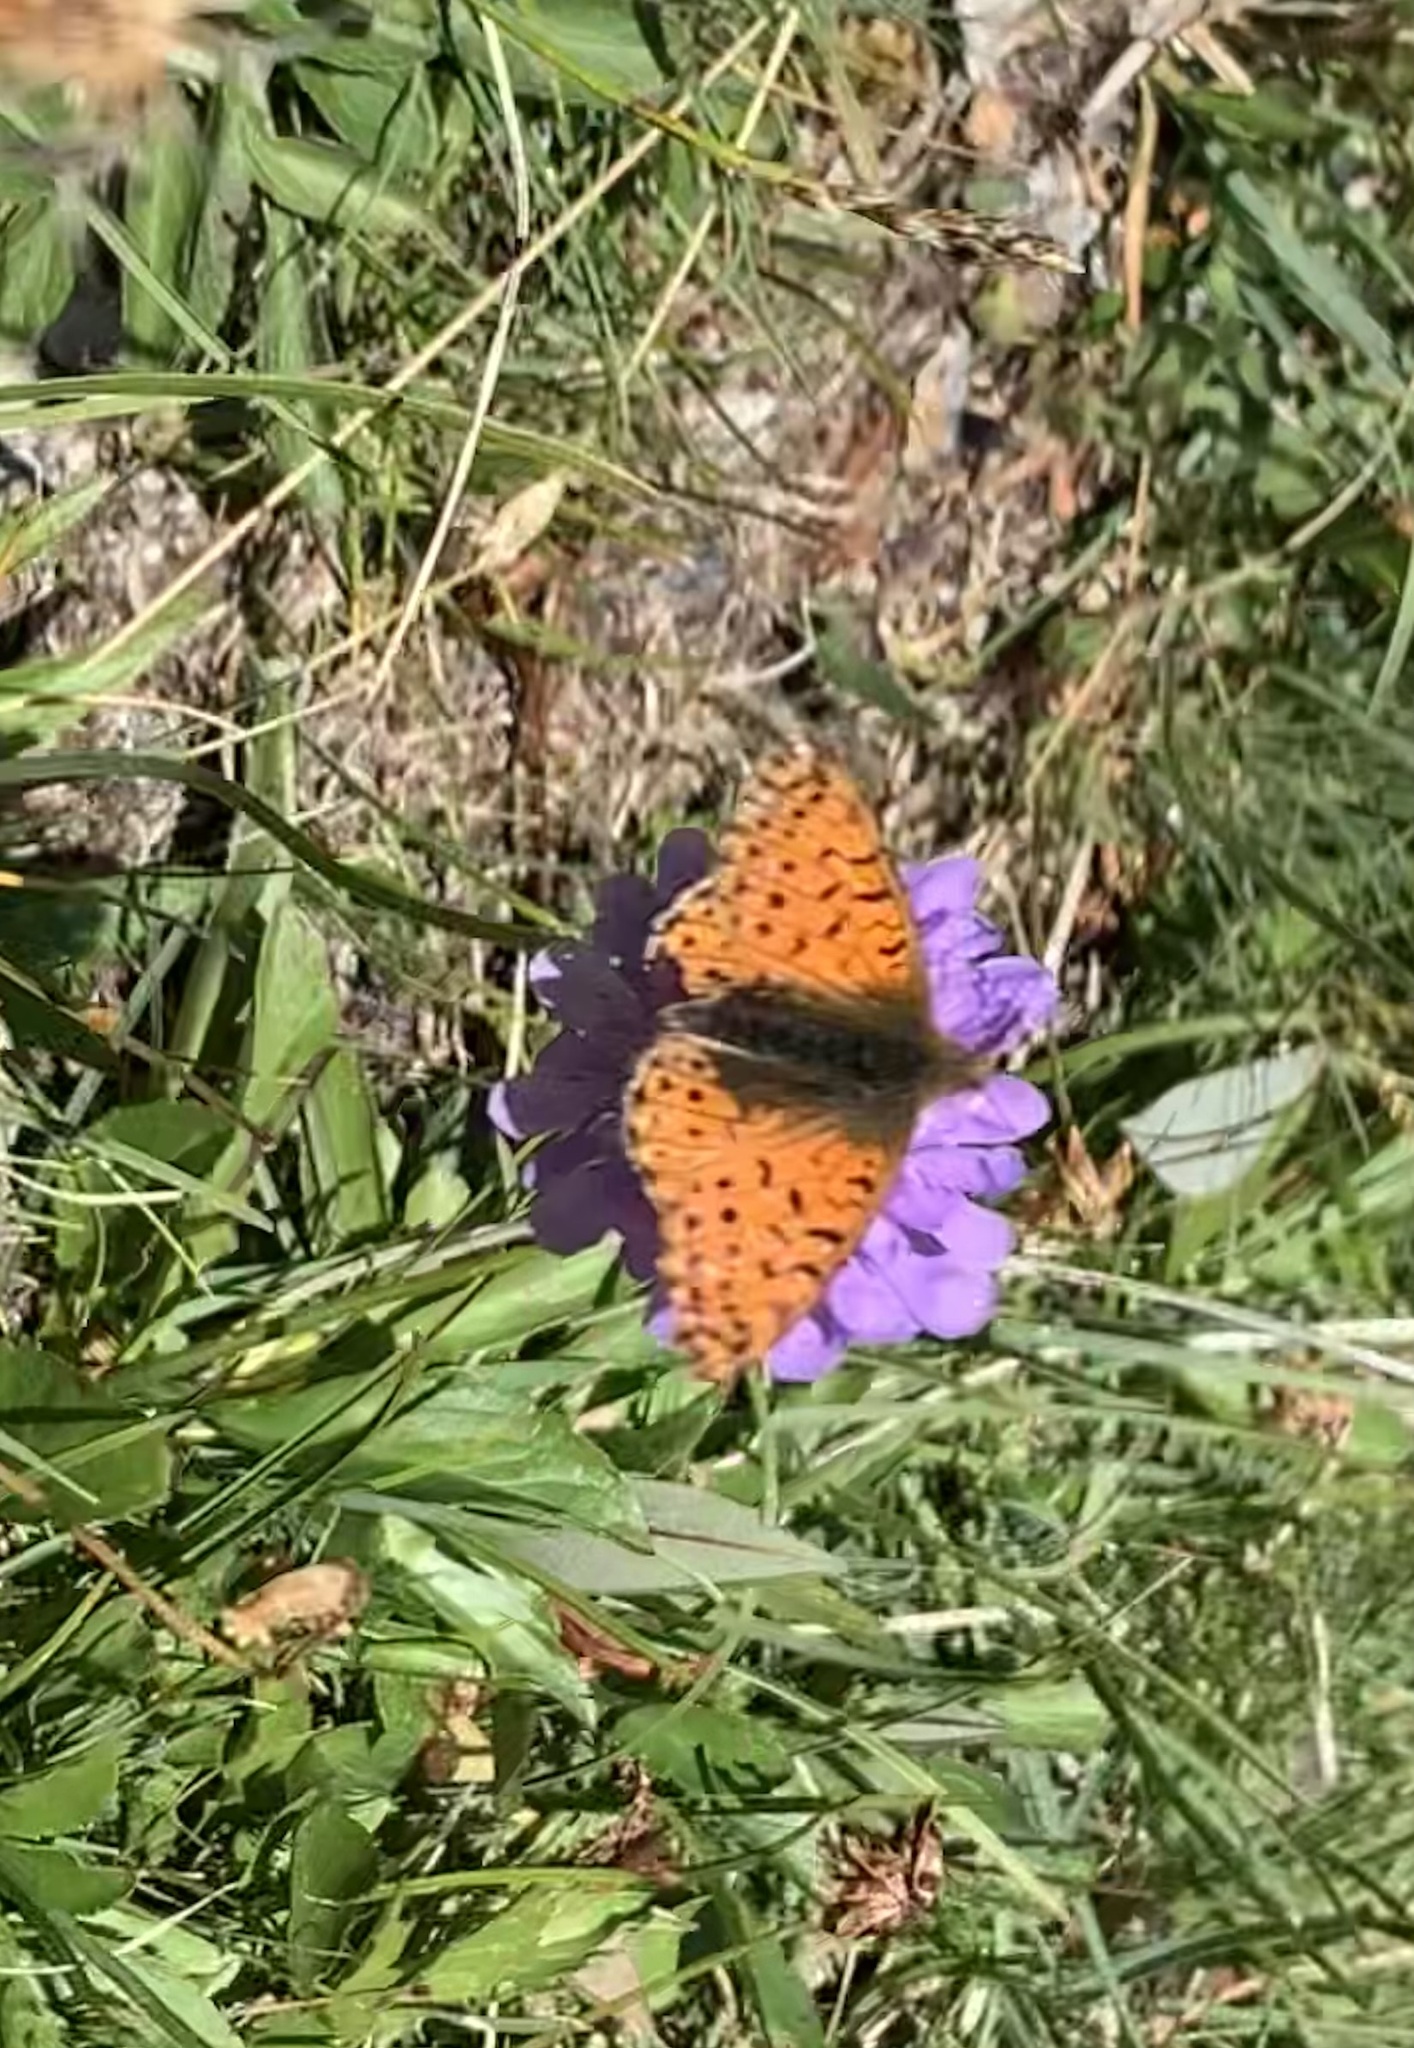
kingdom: Animalia
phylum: Arthropoda
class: Insecta
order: Lepidoptera
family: Nymphalidae
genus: Boloria
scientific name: Boloria pales
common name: Shepherd's fritillary
